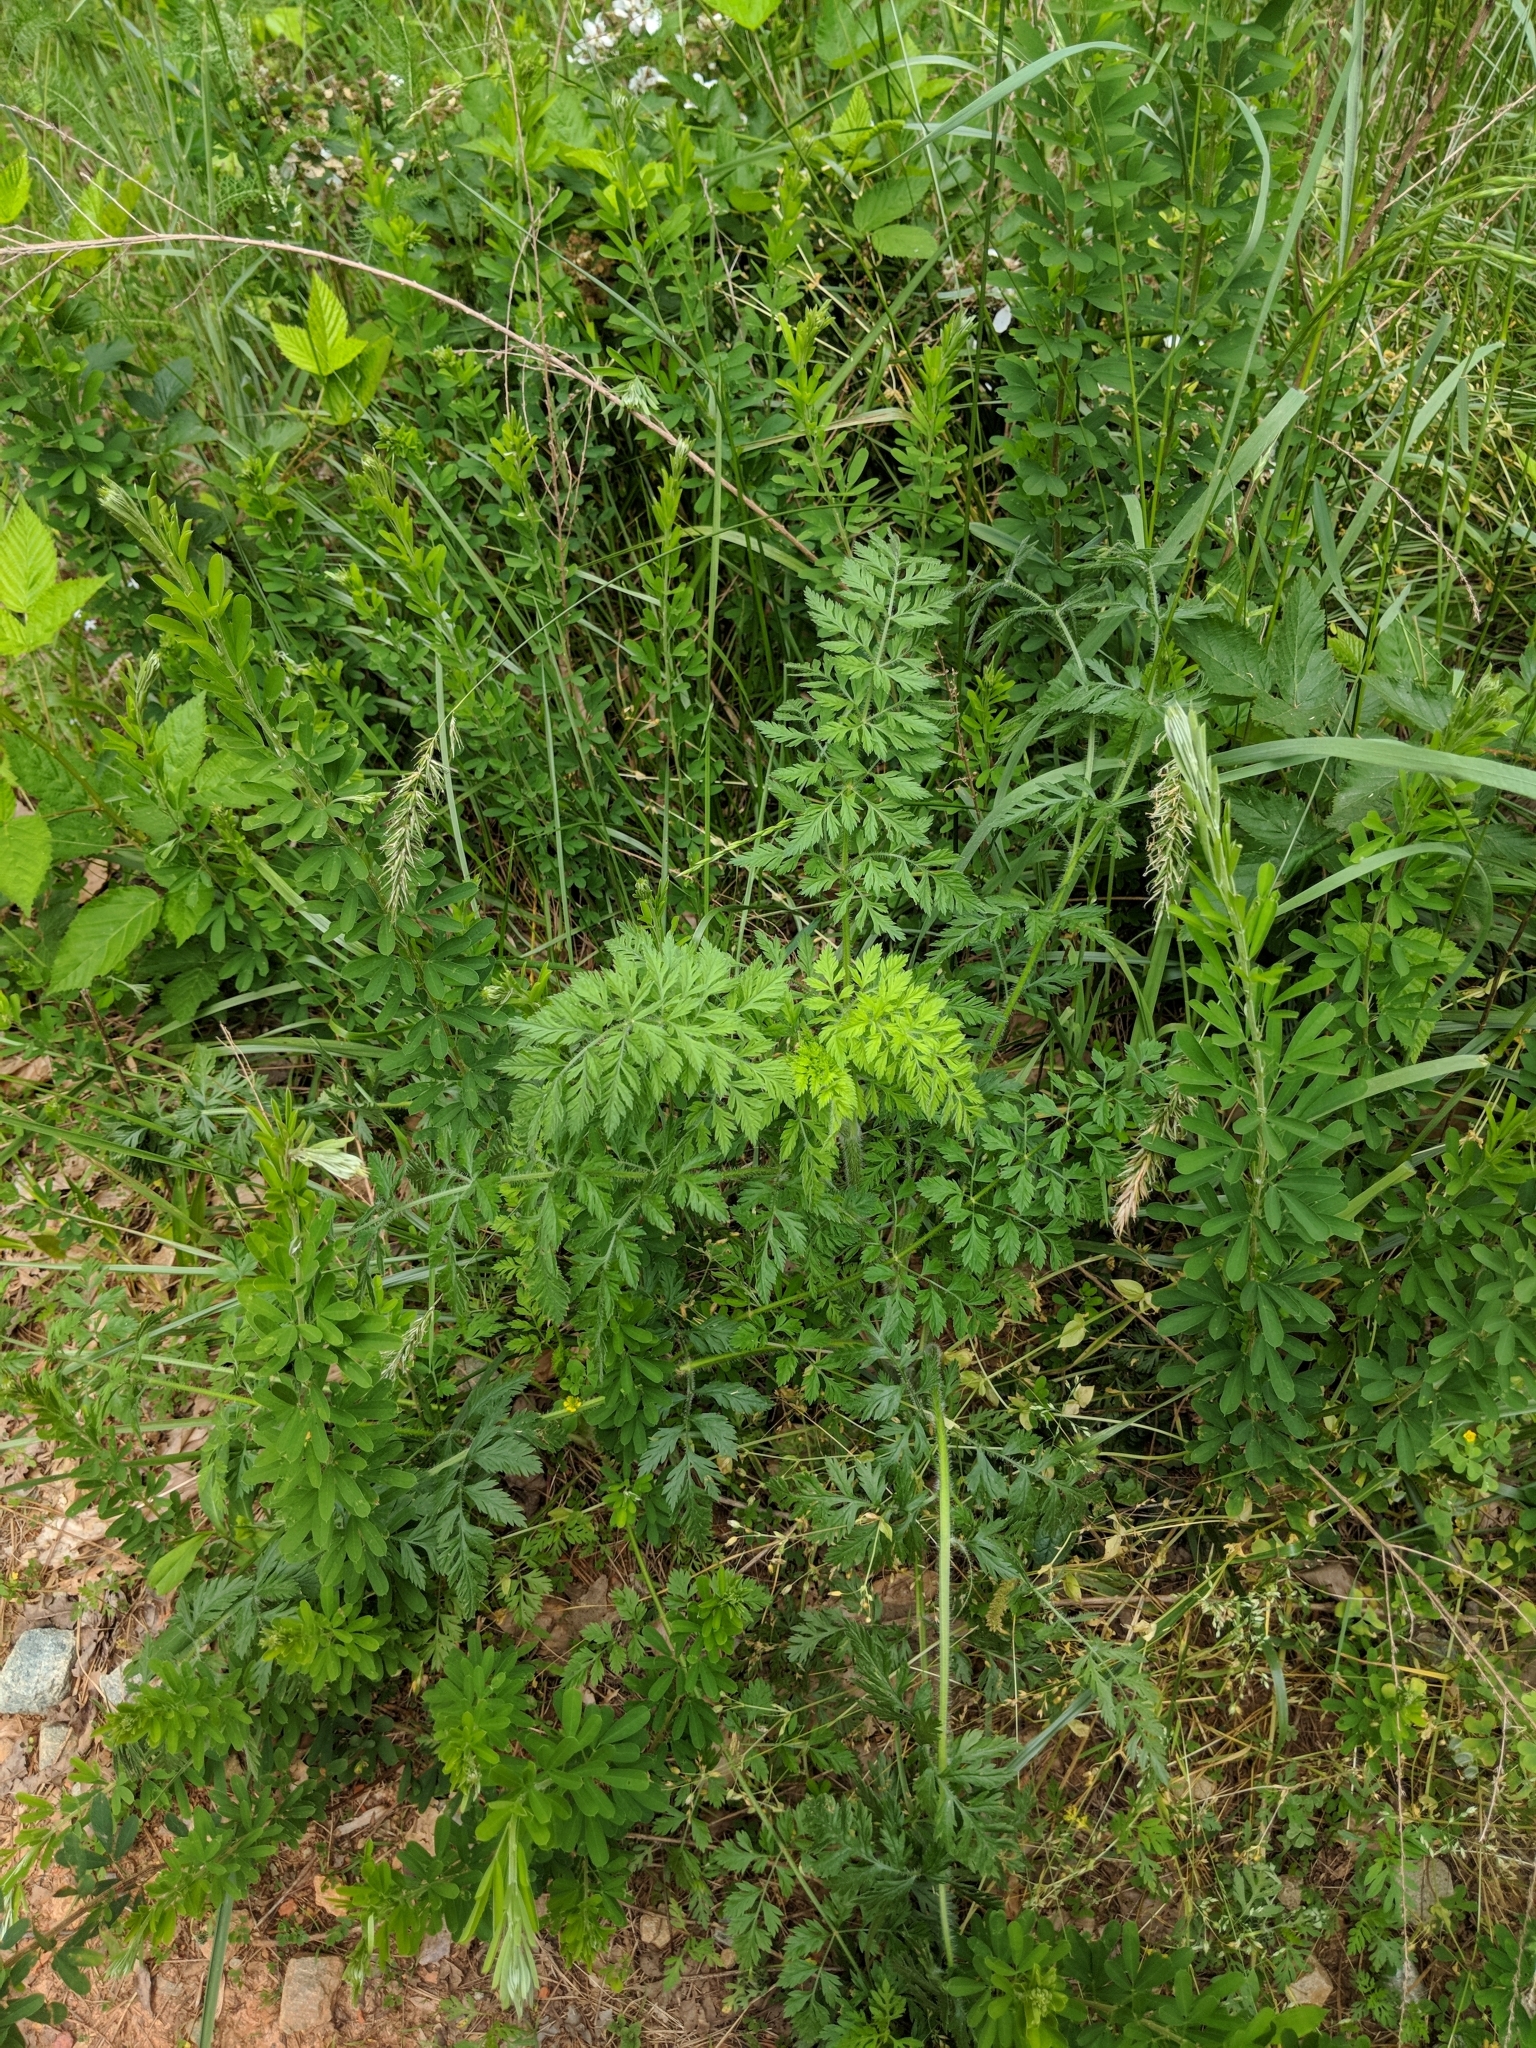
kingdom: Plantae
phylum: Tracheophyta
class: Magnoliopsida
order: Apiales
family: Apiaceae
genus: Daucus
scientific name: Daucus carota
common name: Wild carrot
